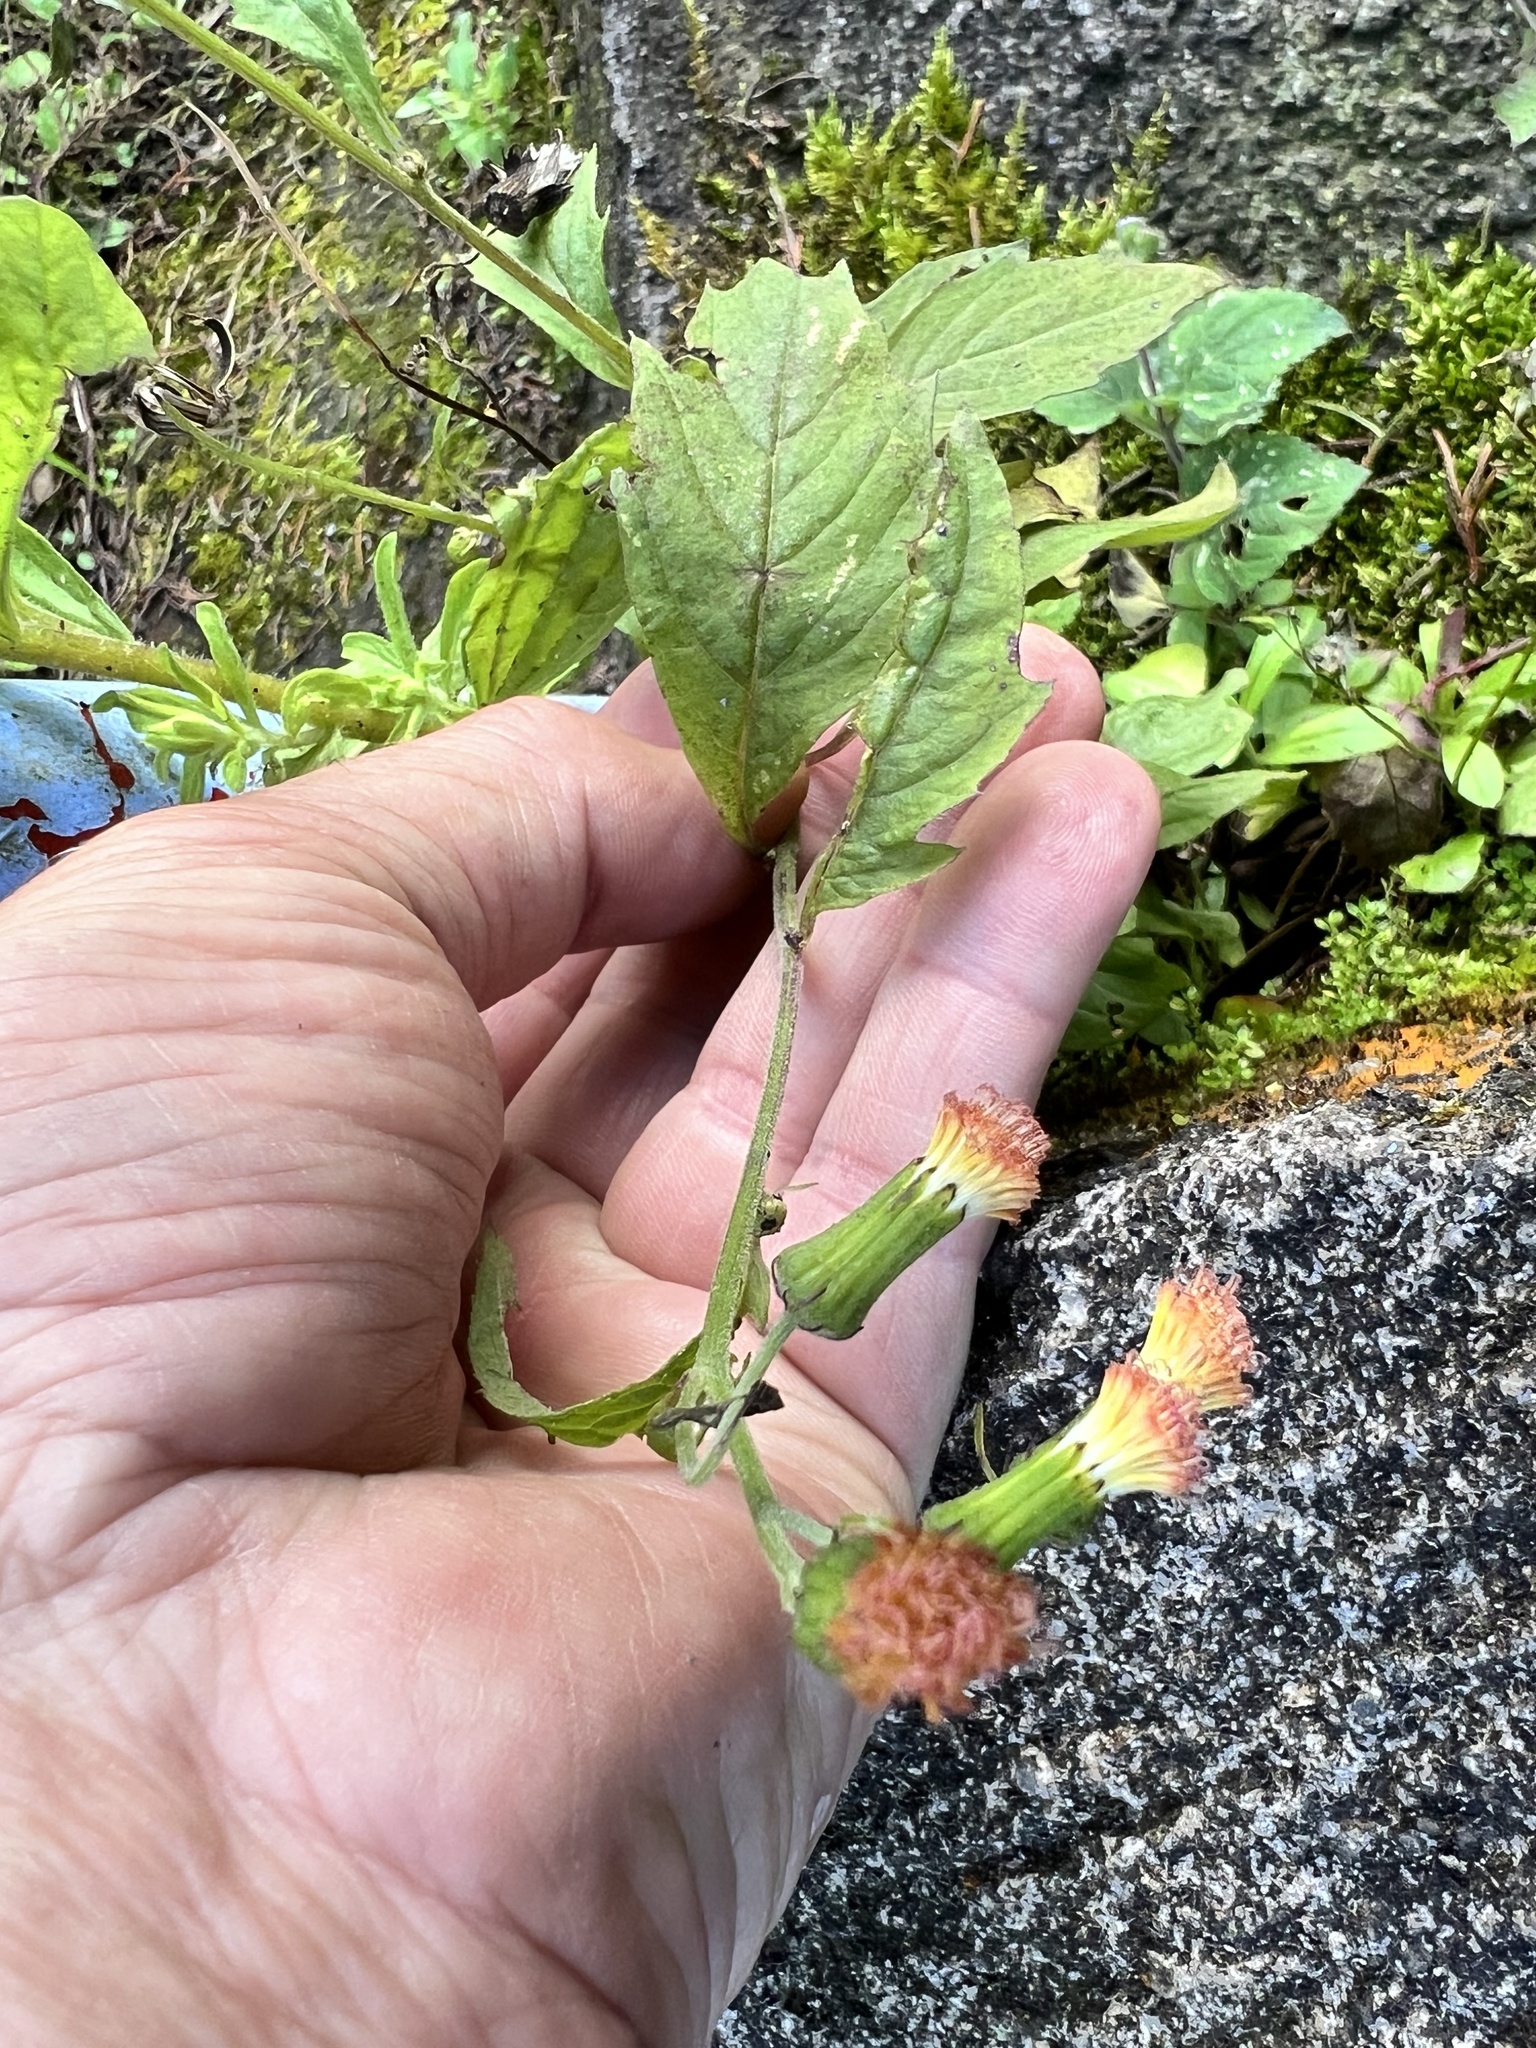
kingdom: Plantae
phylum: Tracheophyta
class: Magnoliopsida
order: Asterales
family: Asteraceae
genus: Crassocephalum
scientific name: Crassocephalum crepidioides
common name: Redflower ragleaf
